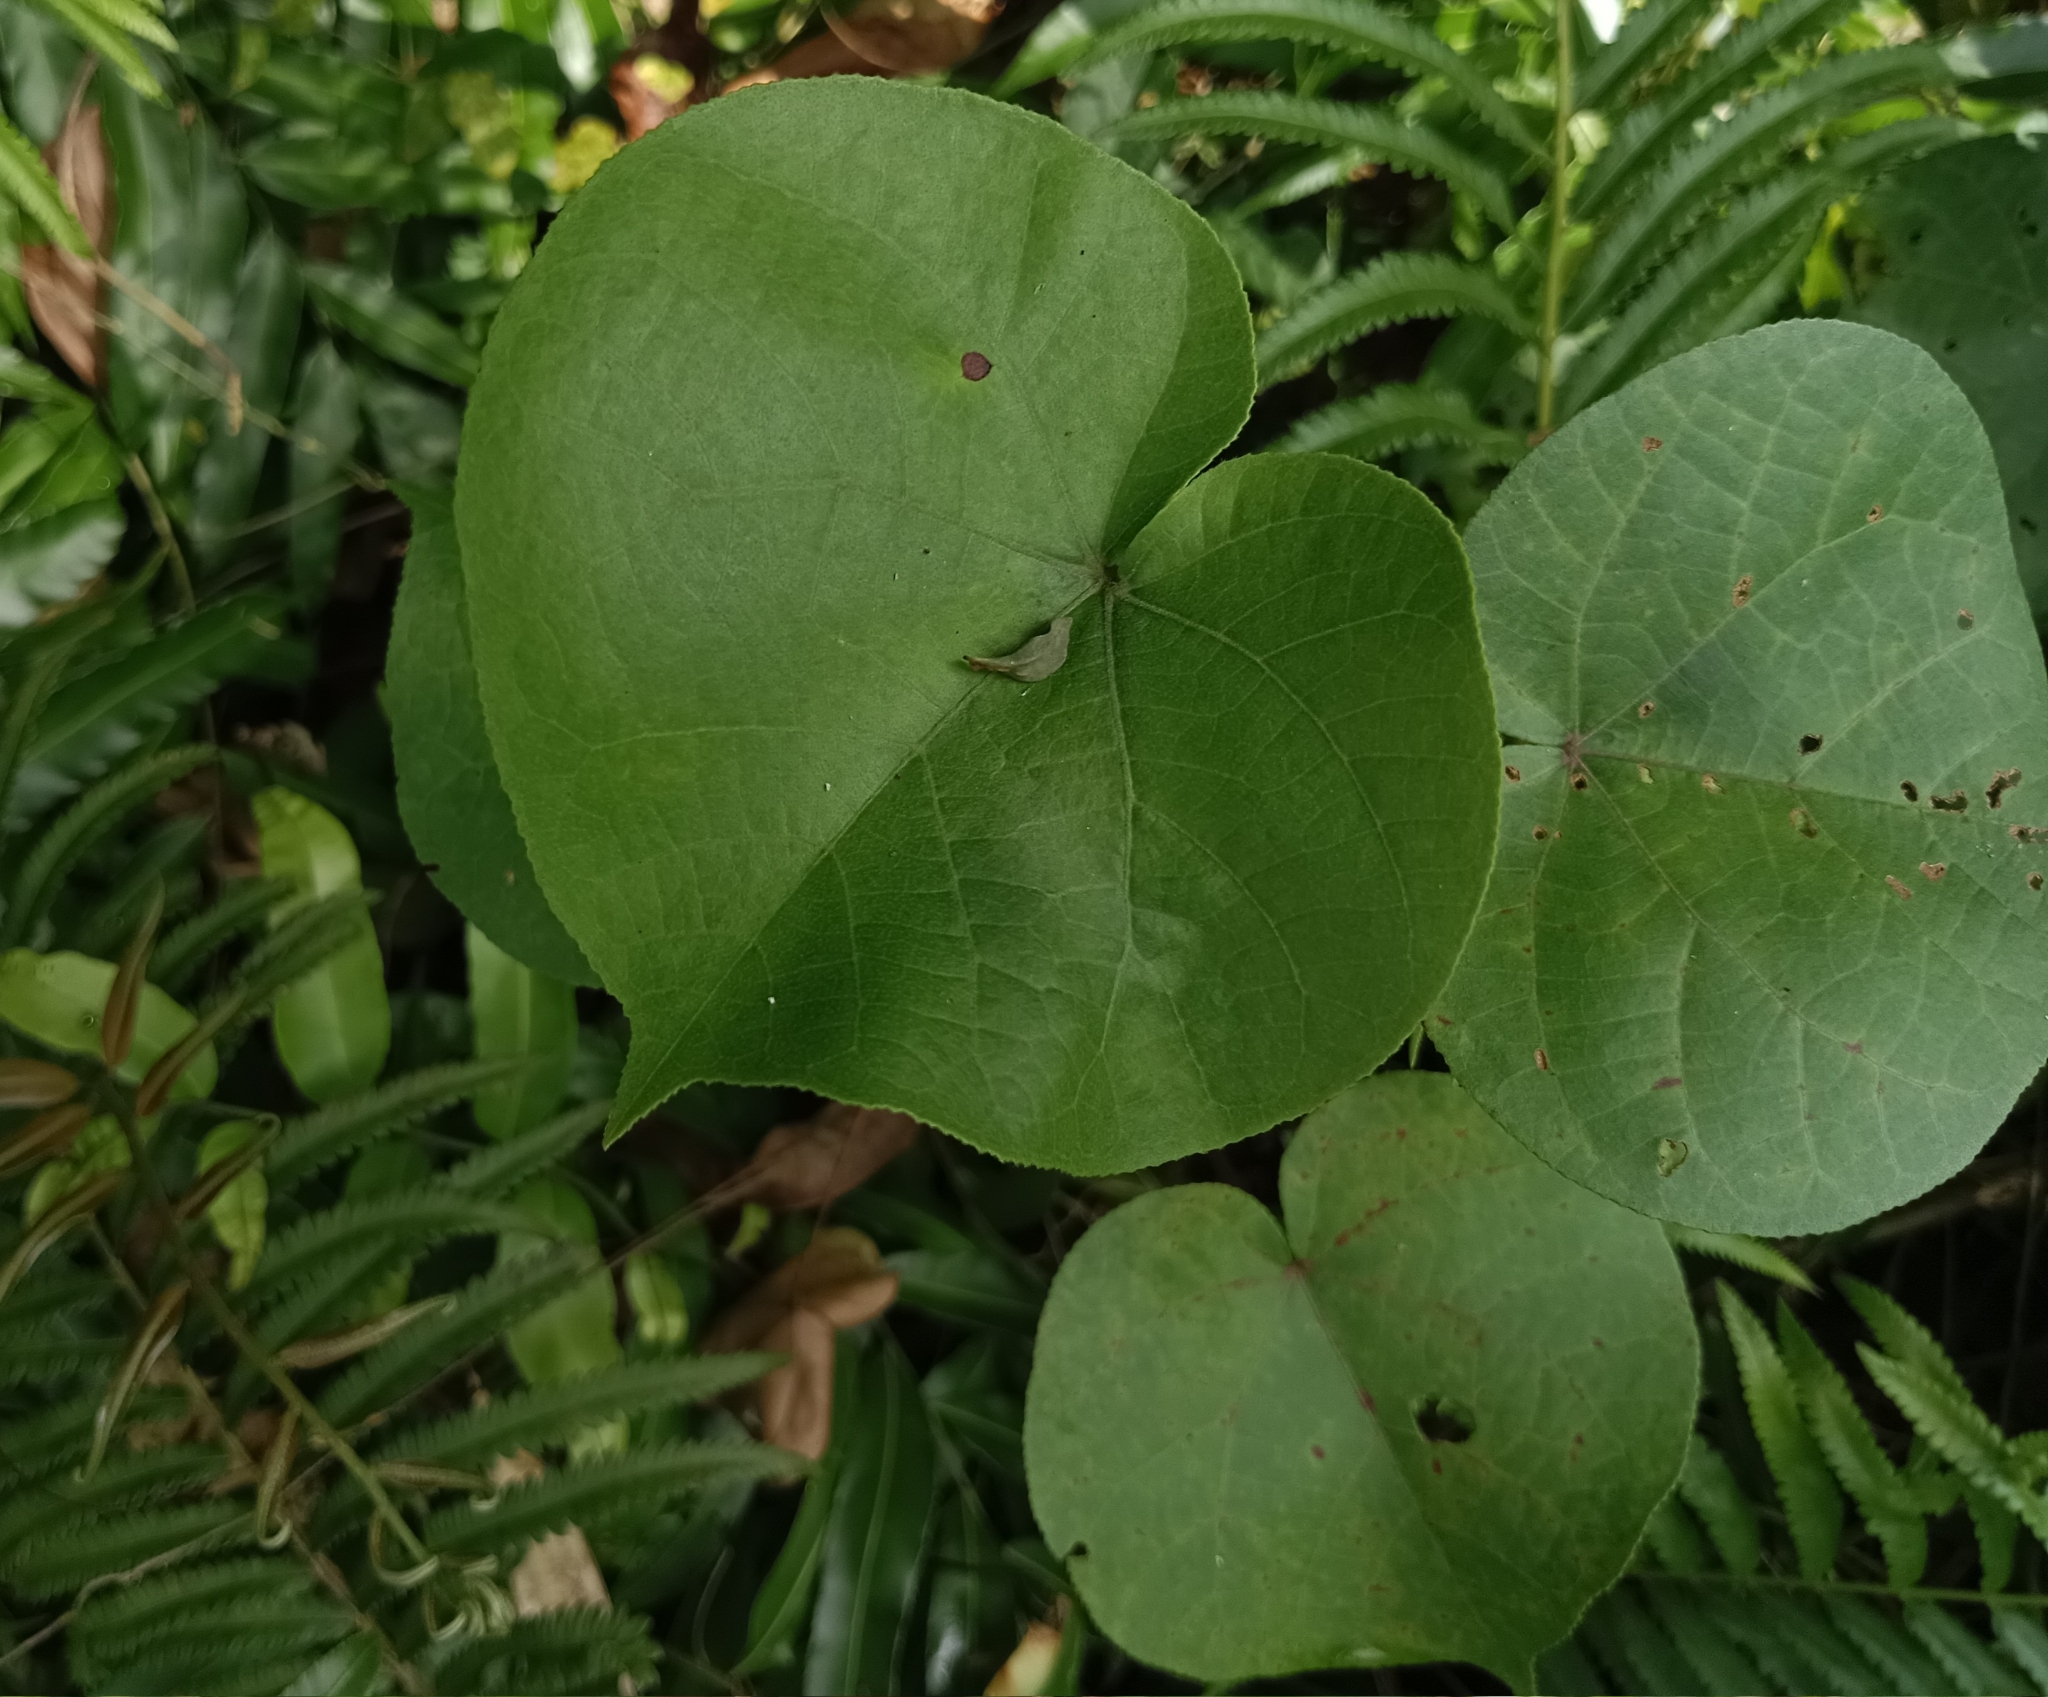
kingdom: Plantae
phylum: Tracheophyta
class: Magnoliopsida
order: Malvales
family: Malvaceae
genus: Talipariti
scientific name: Talipariti tiliaceum
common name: Sea hibiscus
